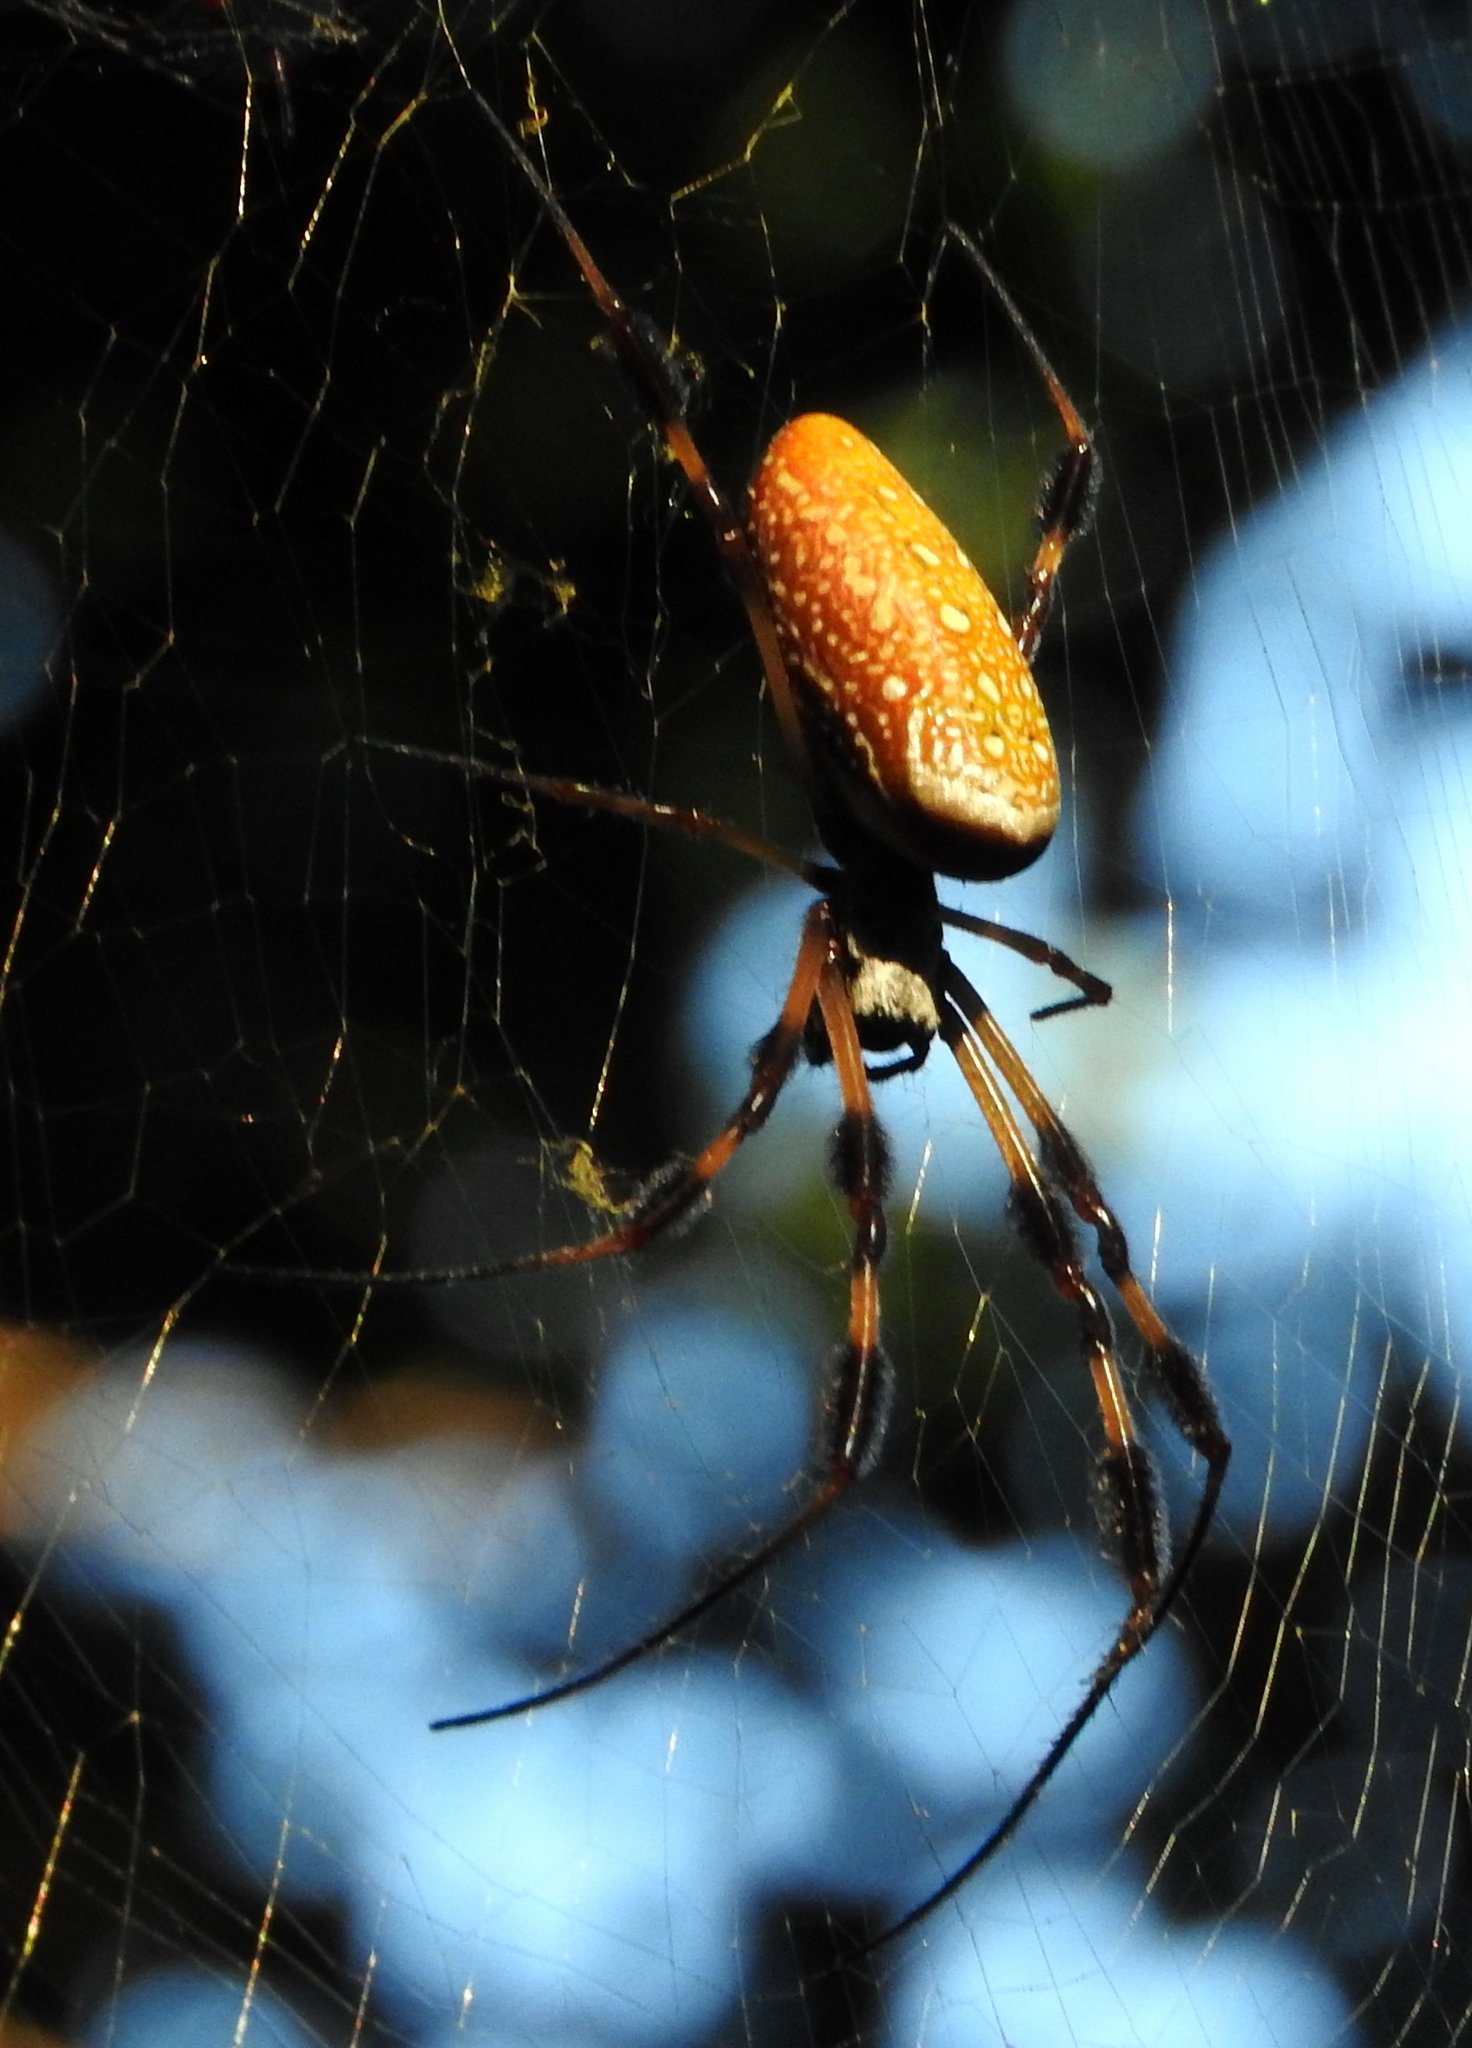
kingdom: Animalia
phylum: Arthropoda
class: Arachnida
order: Araneae
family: Araneidae
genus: Trichonephila
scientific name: Trichonephila clavipes
